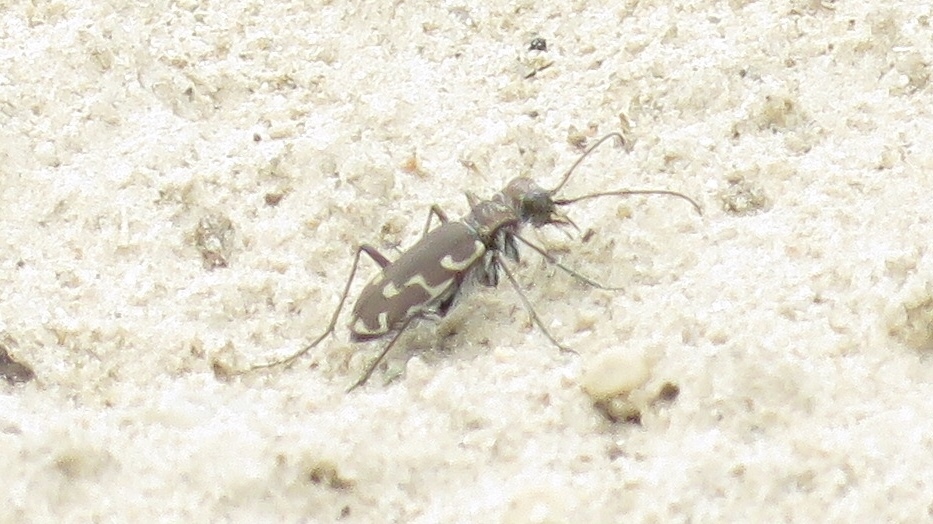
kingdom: Animalia
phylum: Arthropoda
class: Insecta
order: Coleoptera
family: Carabidae
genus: Cicindela
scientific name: Cicindela repanda
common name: Bronzed tiger beetle
